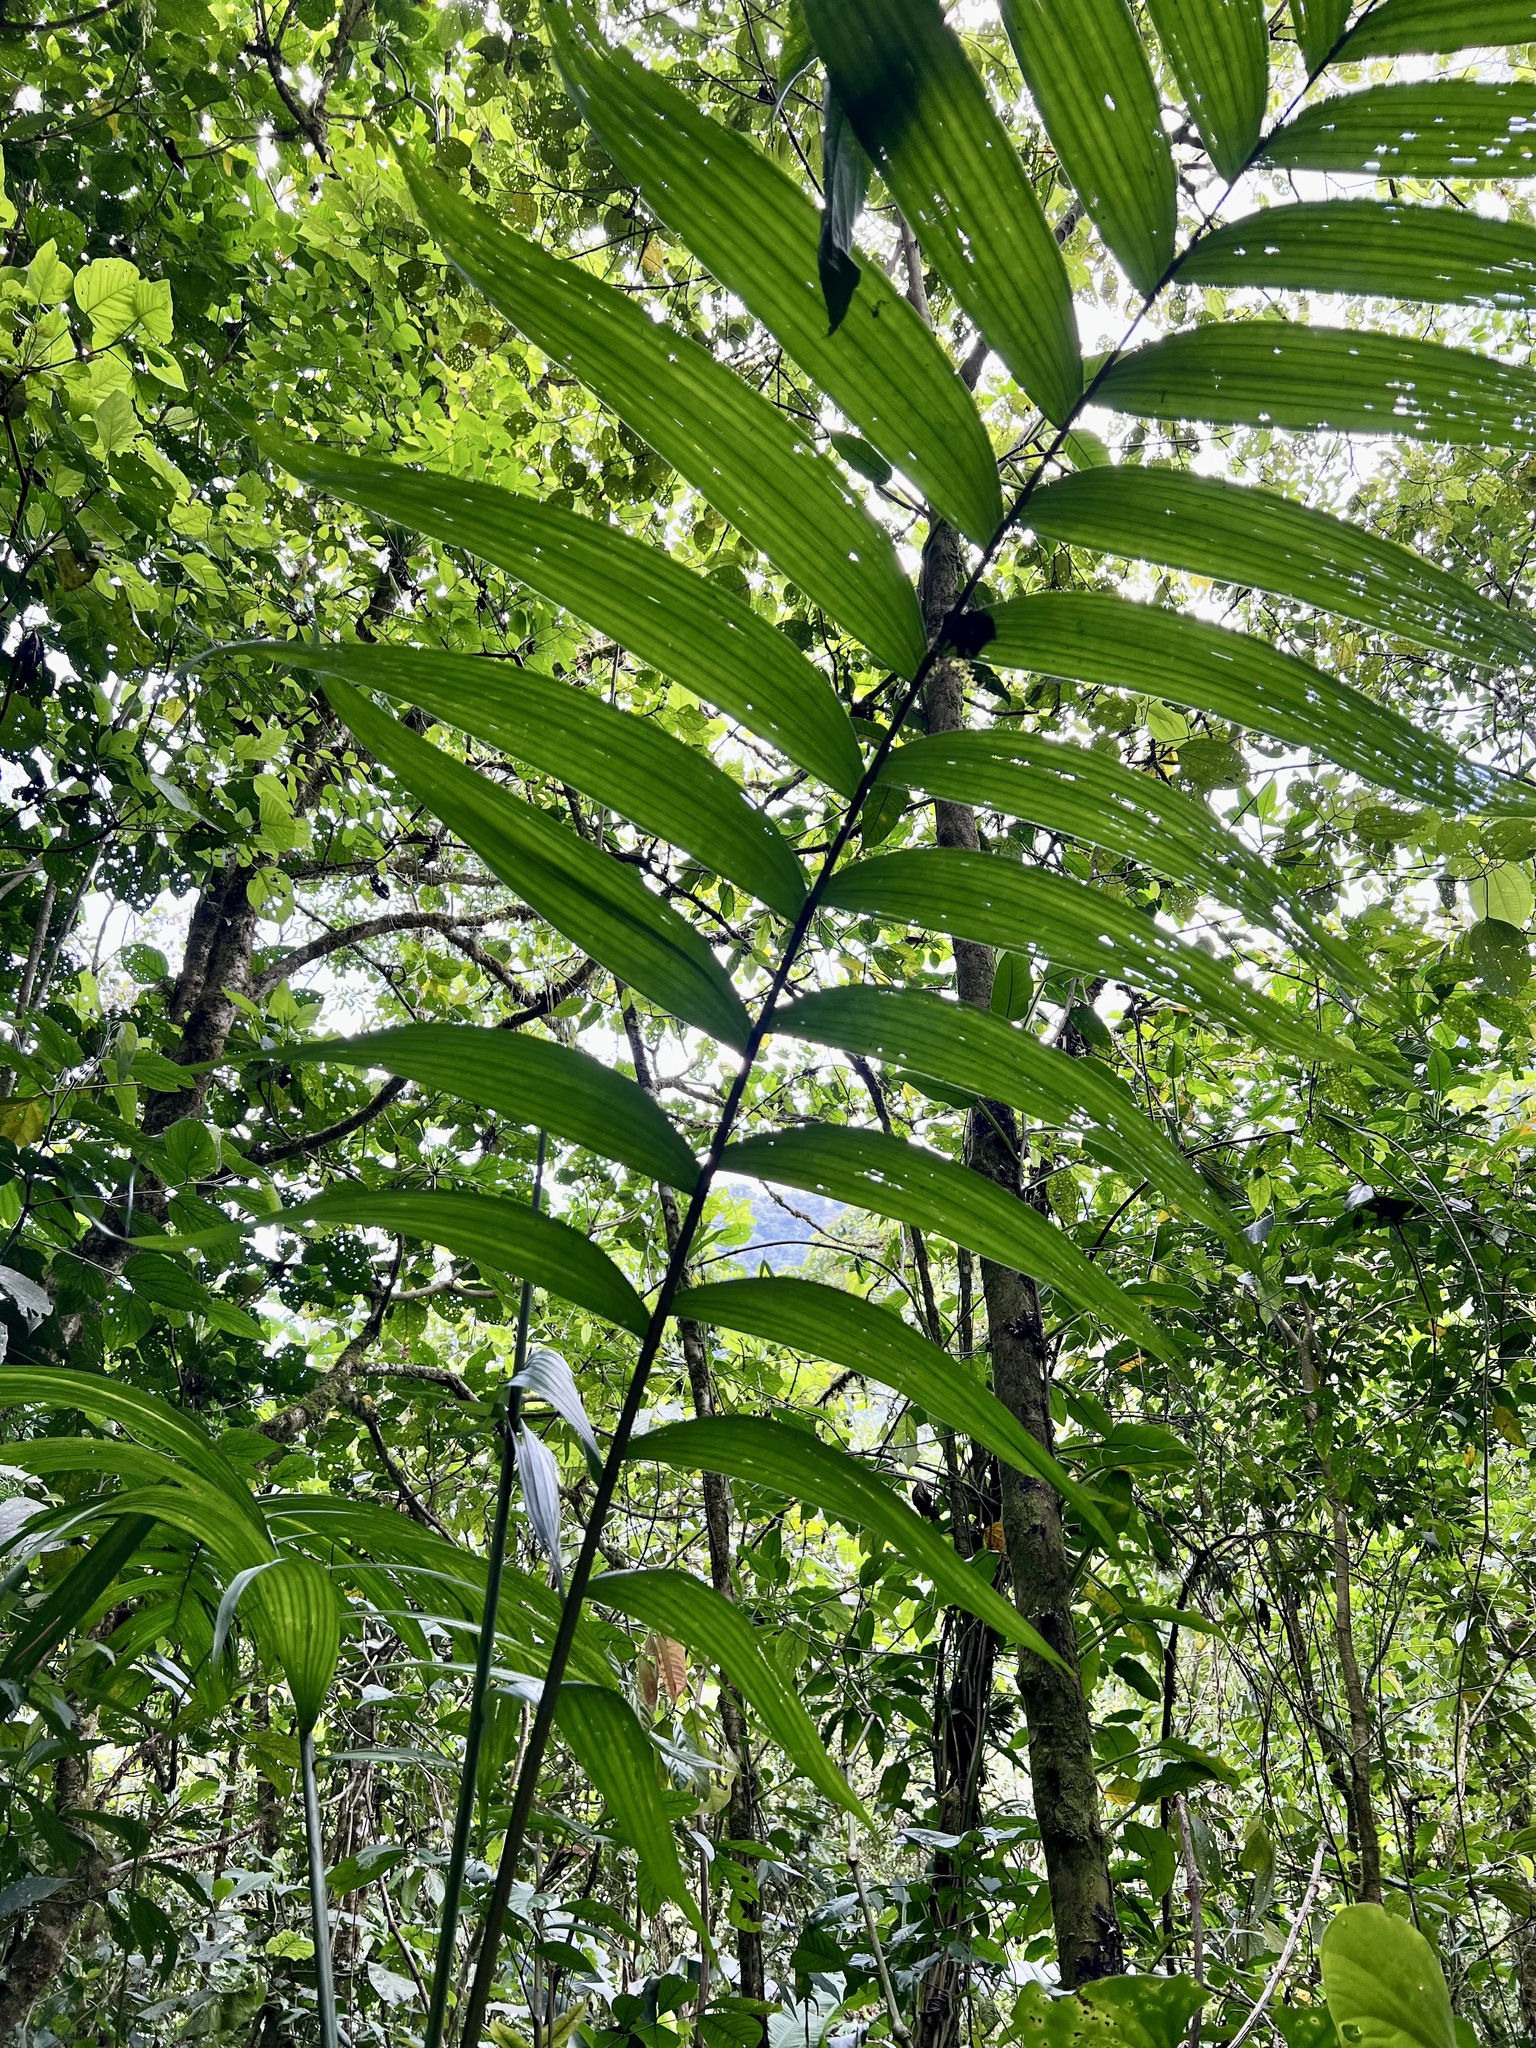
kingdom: Plantae
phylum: Tracheophyta
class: Liliopsida
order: Arecales
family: Arecaceae
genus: Chamaedorea
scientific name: Chamaedorea tepejilote
